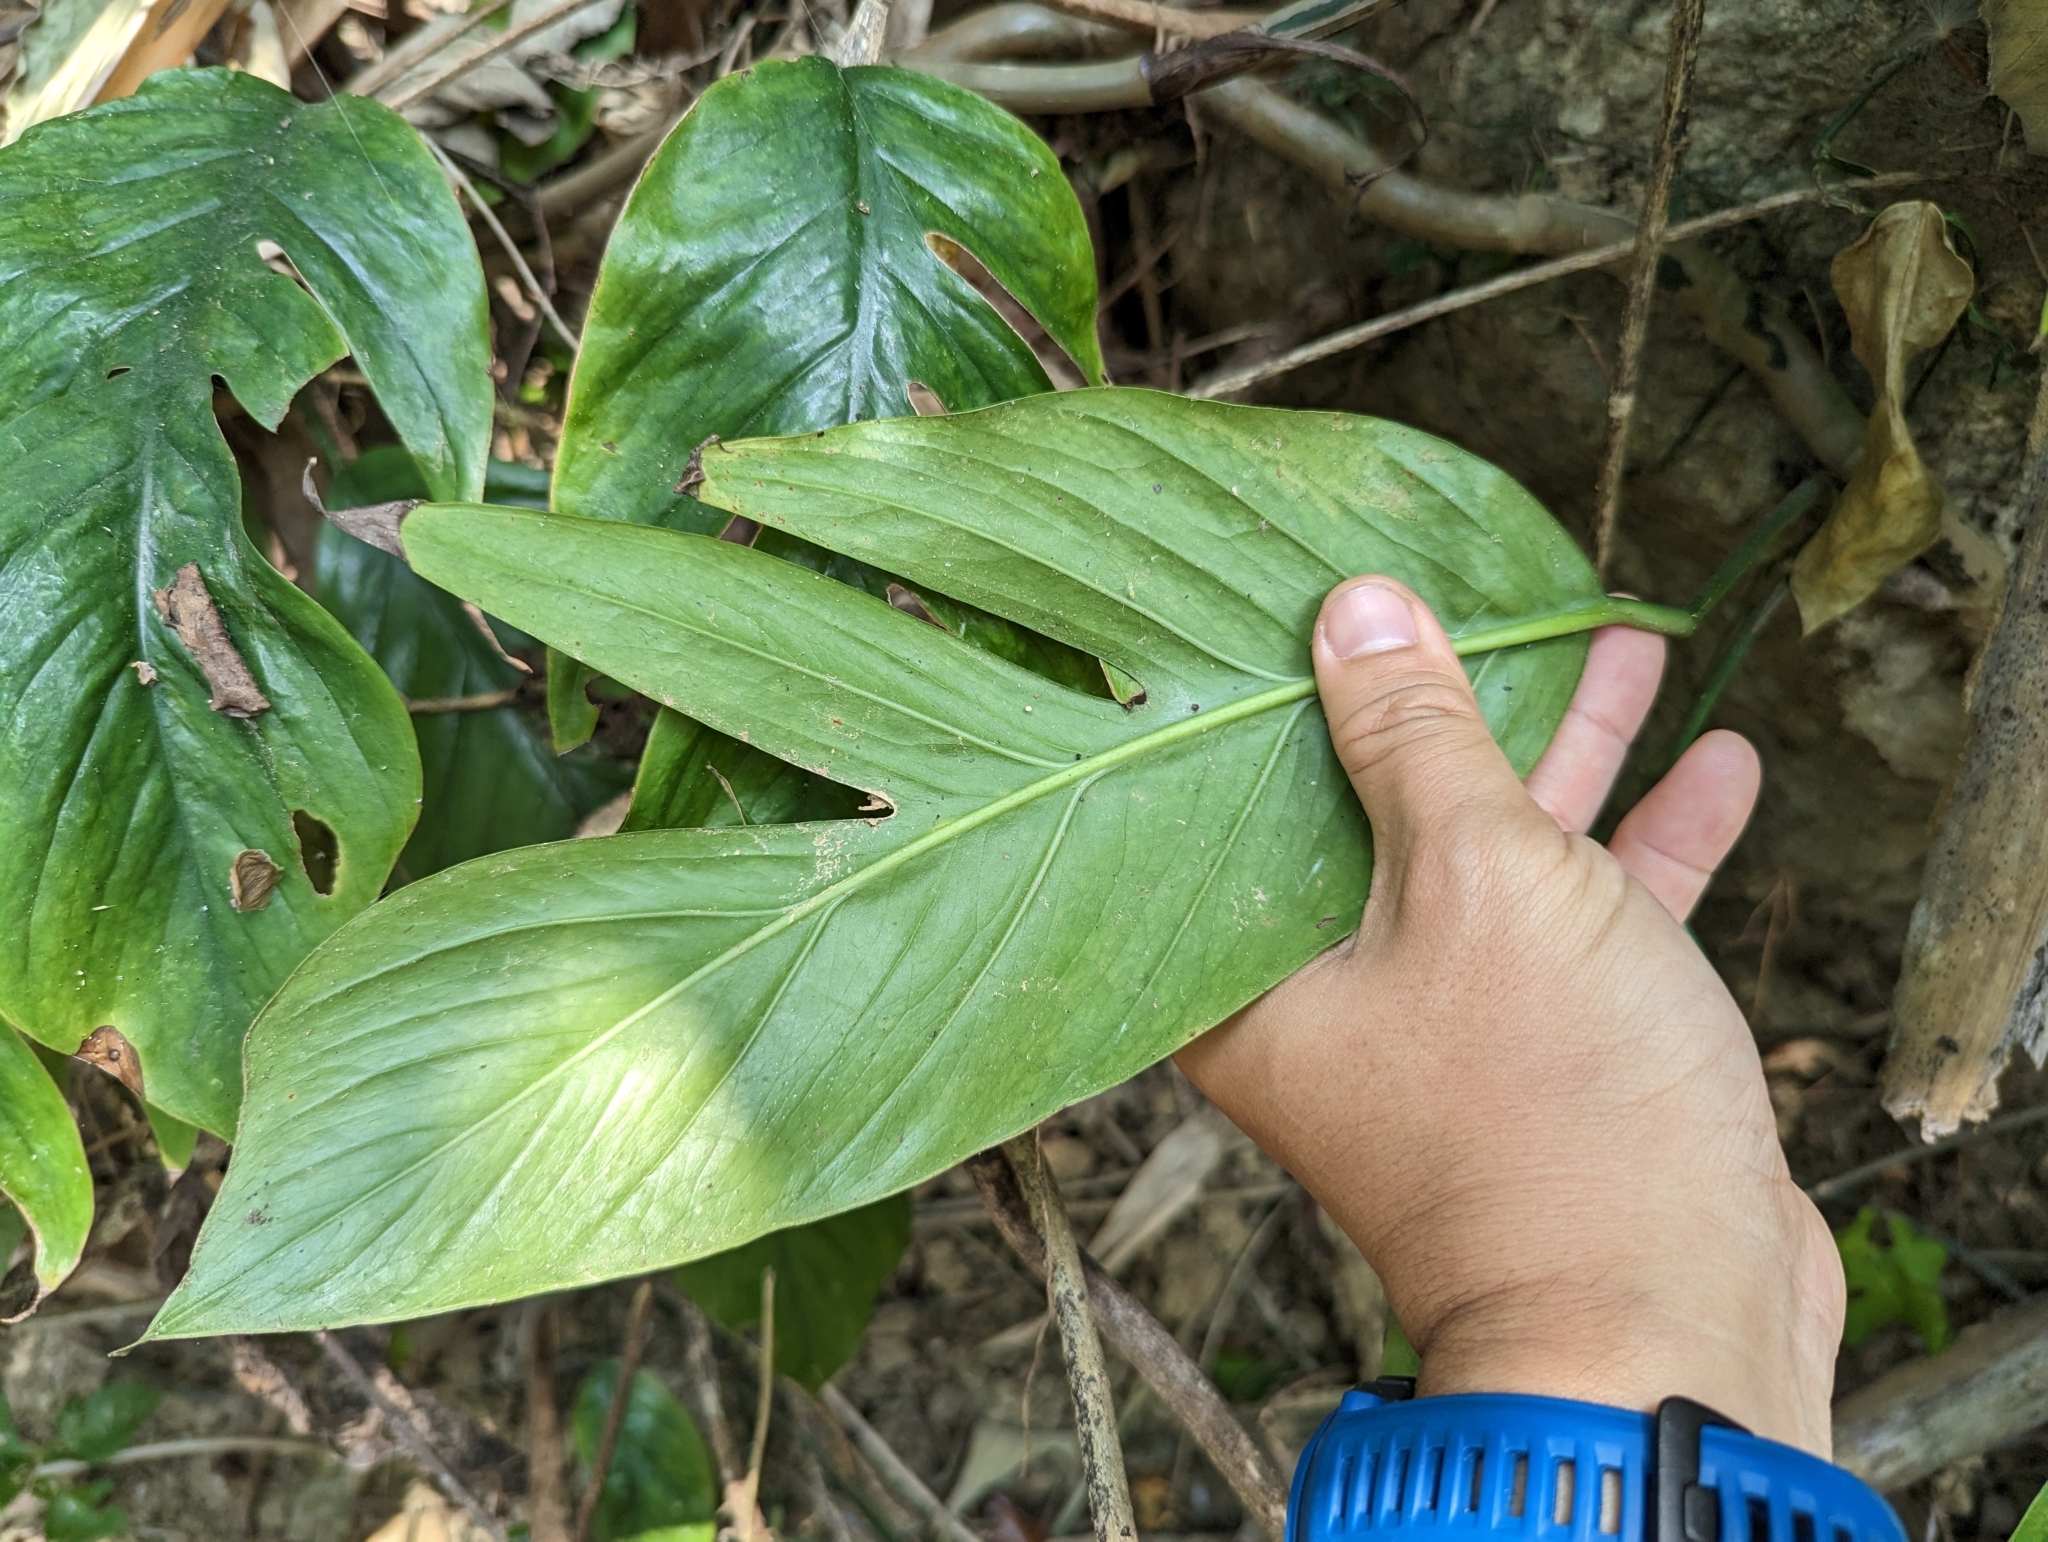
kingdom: Plantae
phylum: Tracheophyta
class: Liliopsida
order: Alismatales
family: Araceae
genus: Epipremnum
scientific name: Epipremnum pinnatum
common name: Centipede tongavine
